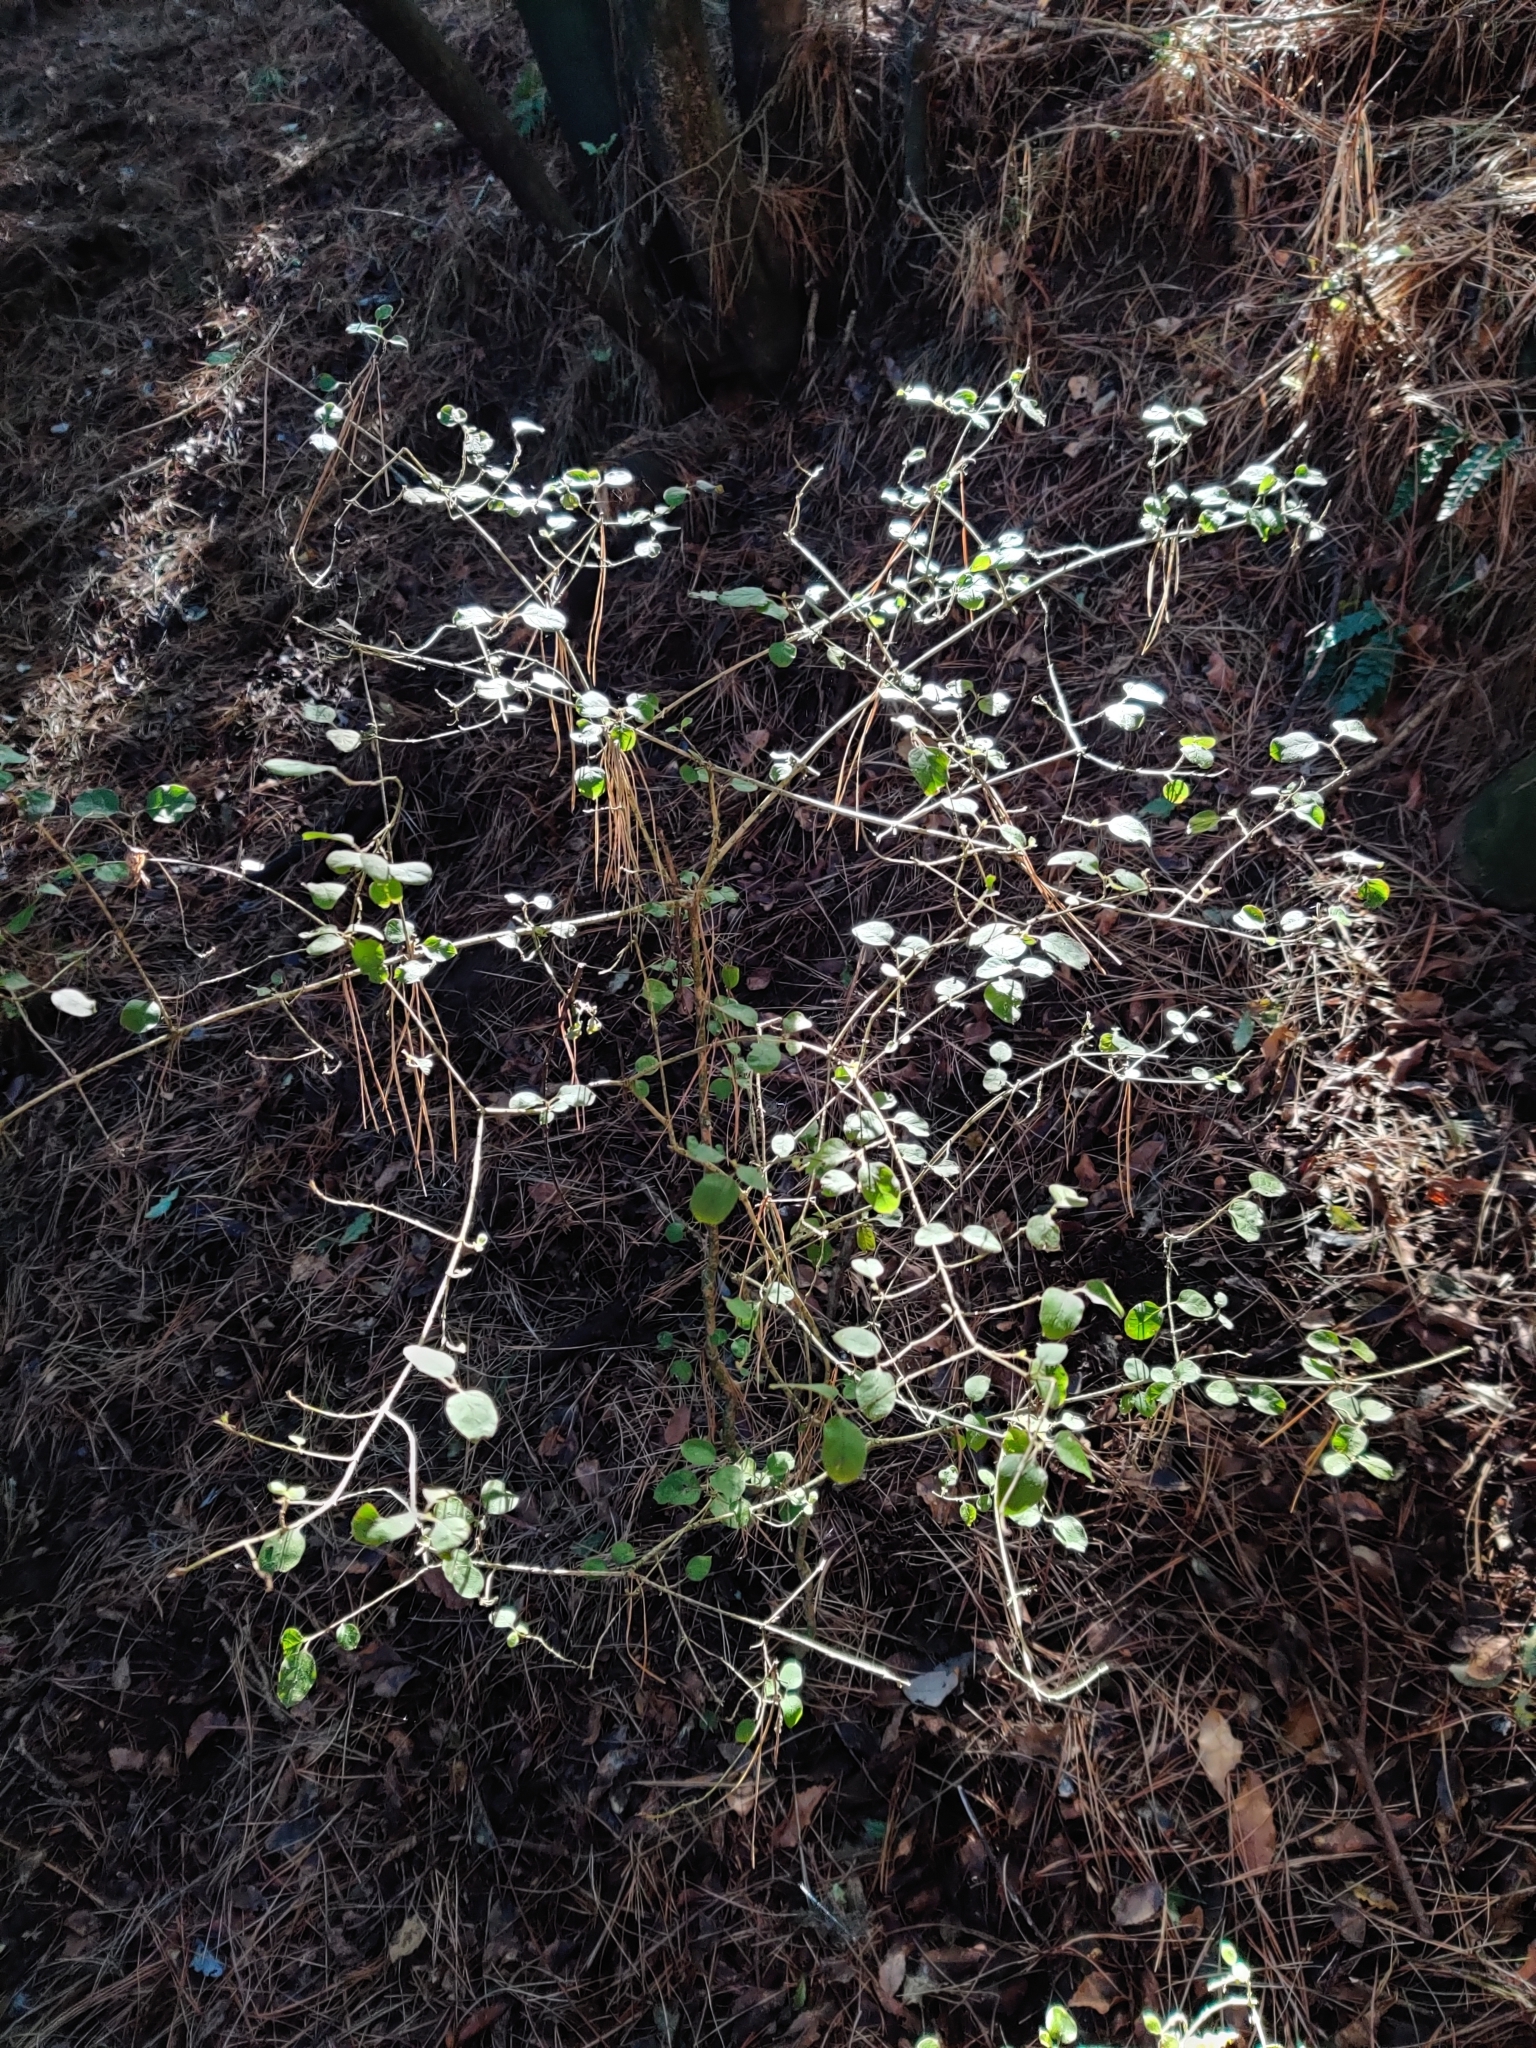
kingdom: Plantae
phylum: Tracheophyta
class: Magnoliopsida
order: Gentianales
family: Rubiaceae
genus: Coprosma
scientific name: Coprosma rotundifolia
